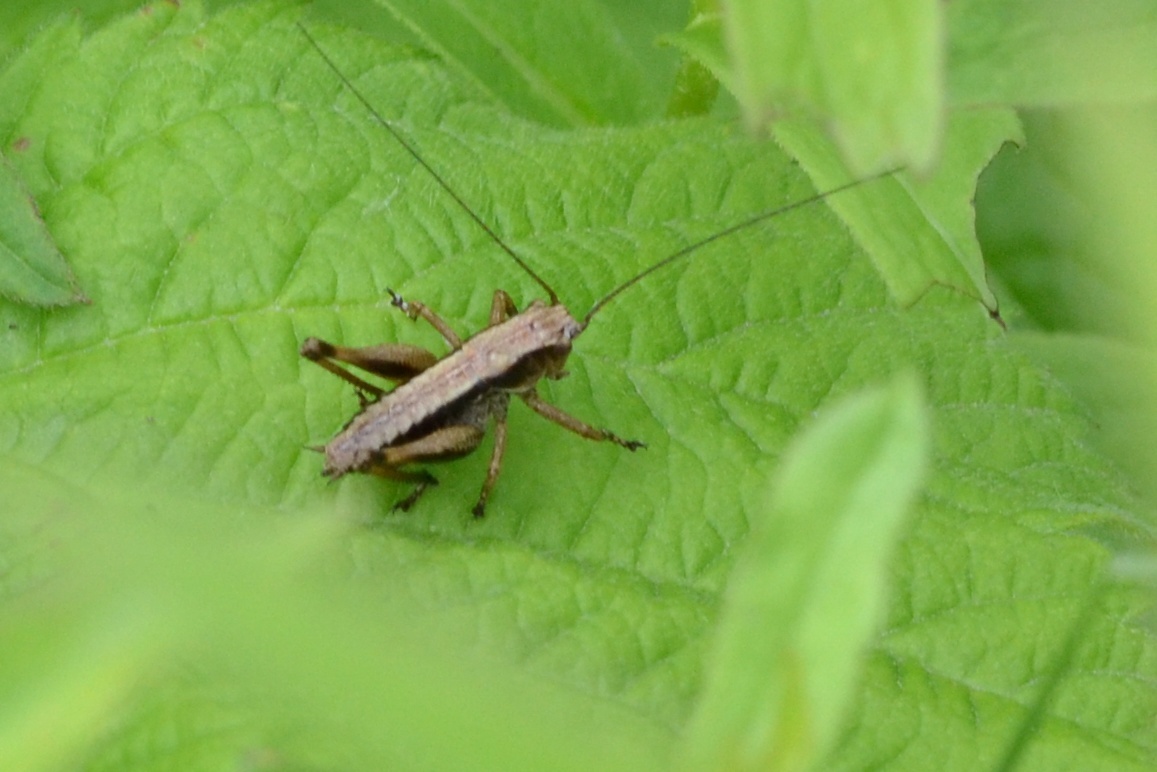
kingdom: Animalia
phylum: Arthropoda
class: Insecta
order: Orthoptera
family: Tettigoniidae
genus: Pholidoptera
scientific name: Pholidoptera griseoaptera
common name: Dark bush-cricket
